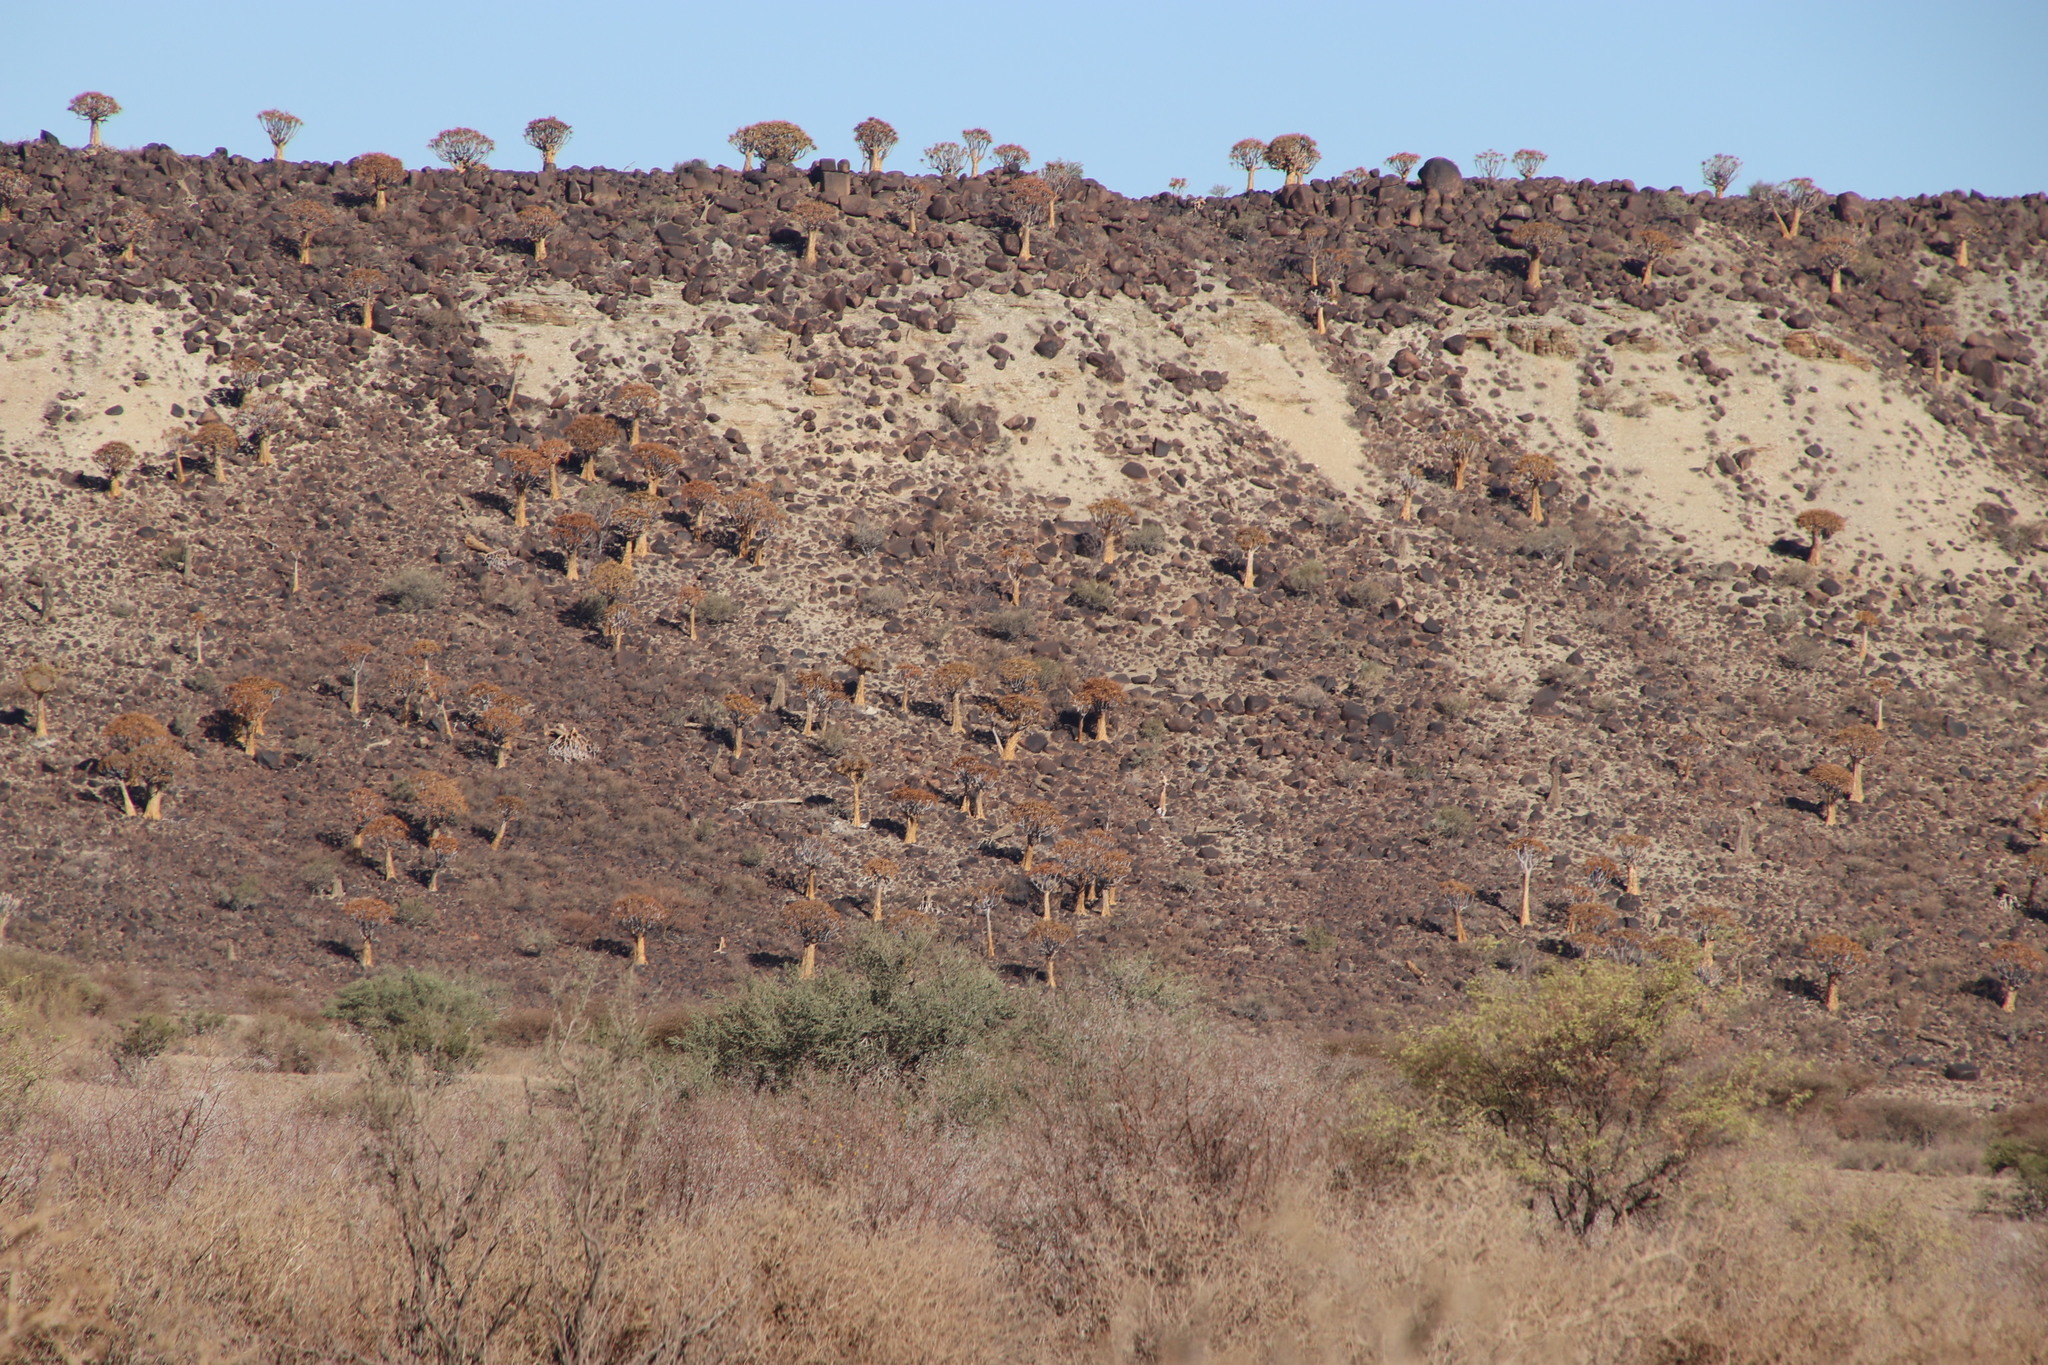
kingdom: Plantae
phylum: Tracheophyta
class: Liliopsida
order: Asparagales
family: Asphodelaceae
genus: Aloidendron
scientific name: Aloidendron dichotomum
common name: Quiver tree
